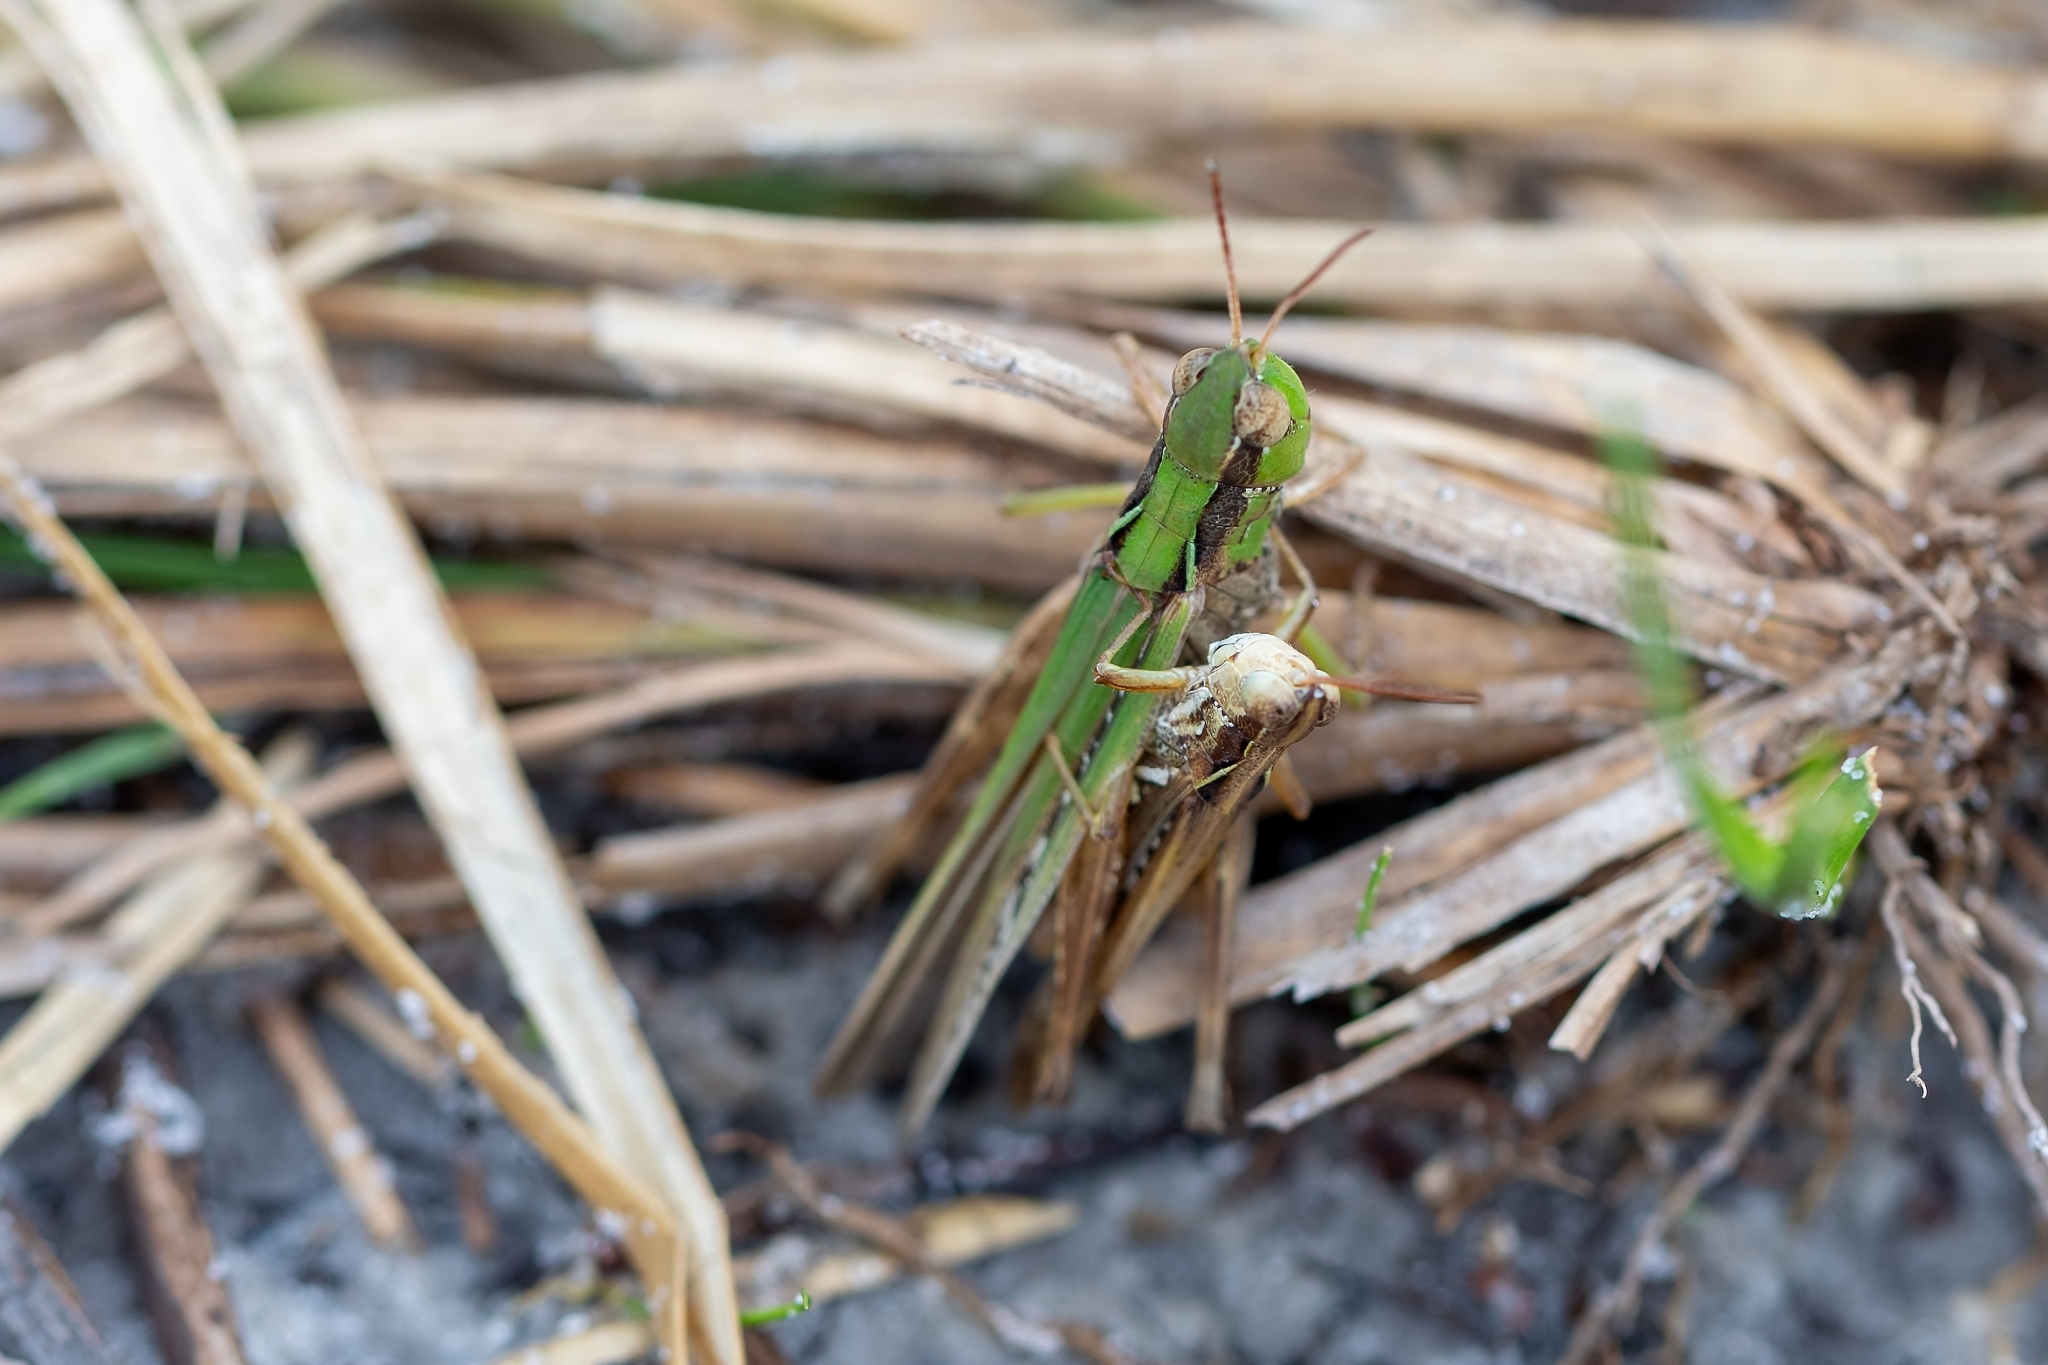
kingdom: Animalia
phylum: Arthropoda
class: Insecta
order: Orthoptera
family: Acrididae
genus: Orphulella
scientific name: Orphulella pelidna
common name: Spotted-wing grasshopper
